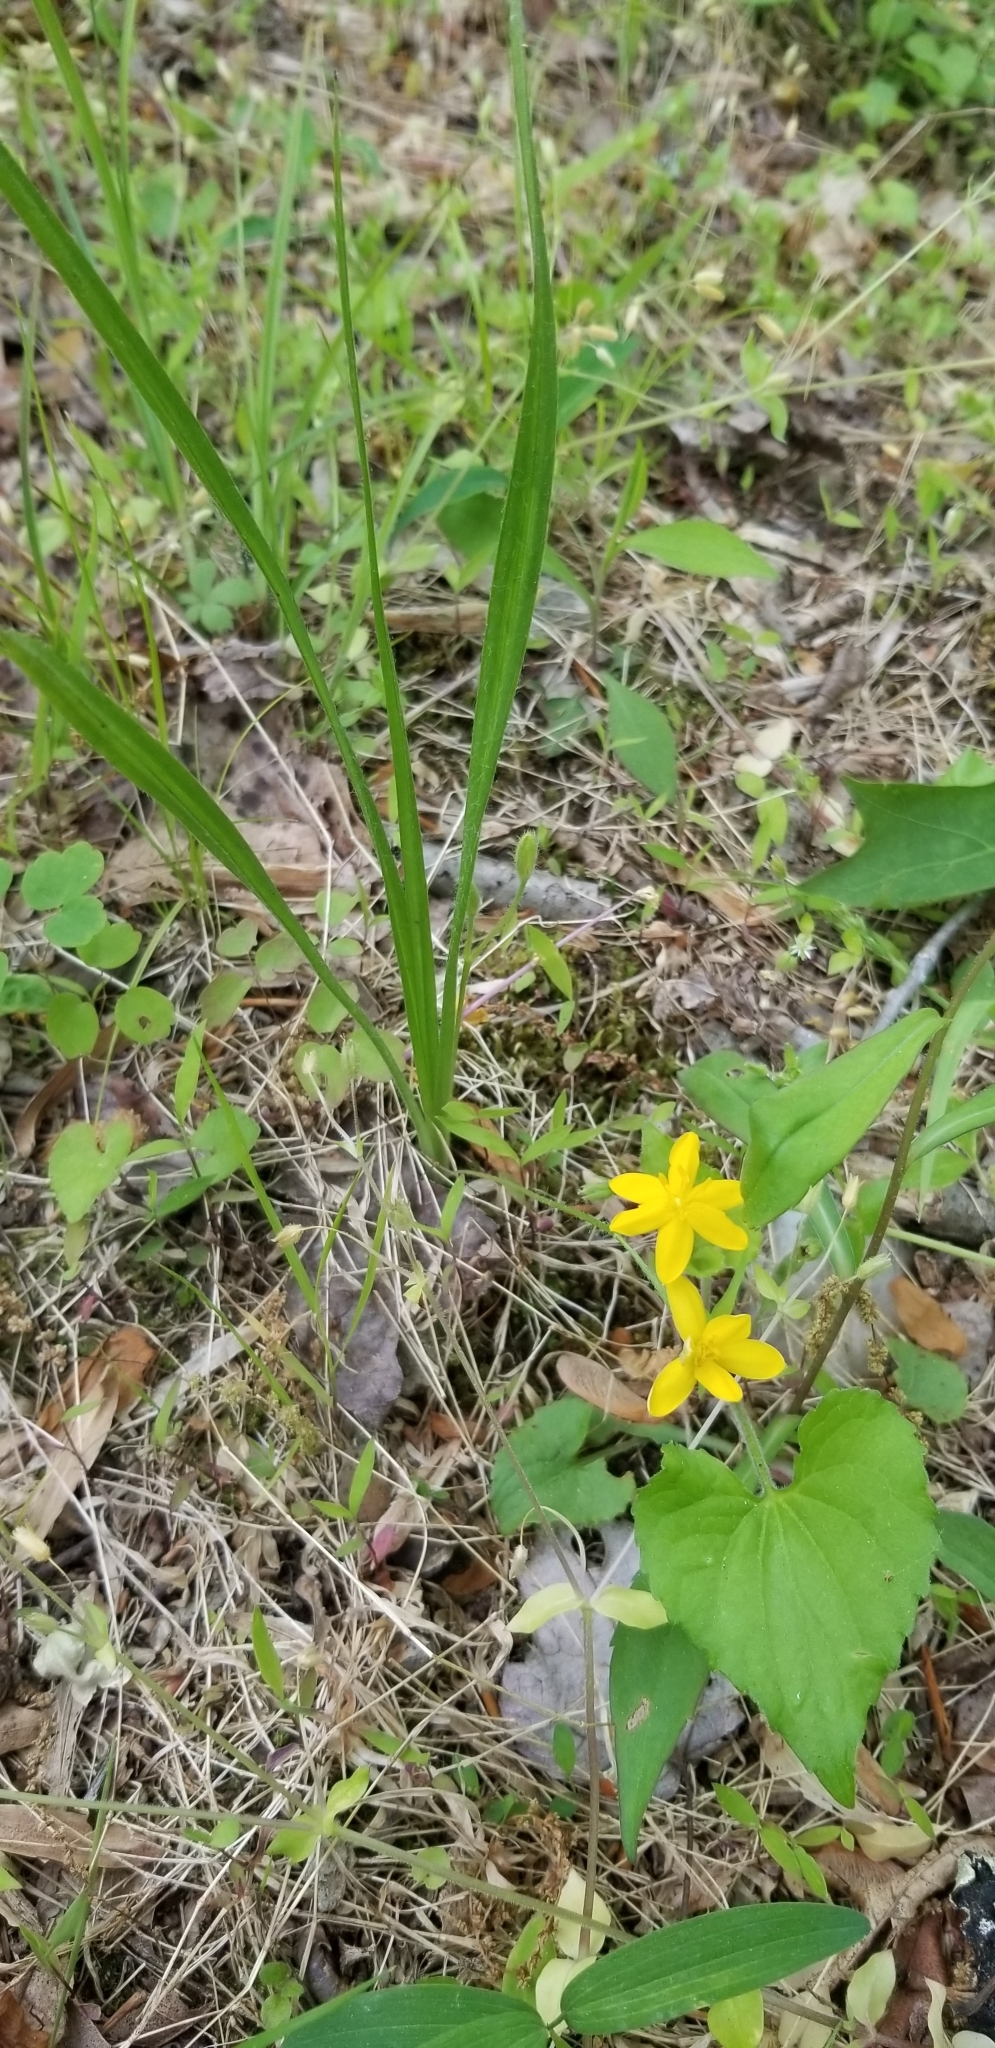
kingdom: Plantae
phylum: Tracheophyta
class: Liliopsida
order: Asparagales
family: Hypoxidaceae
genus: Hypoxis
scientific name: Hypoxis hirsuta
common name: Common goldstar
